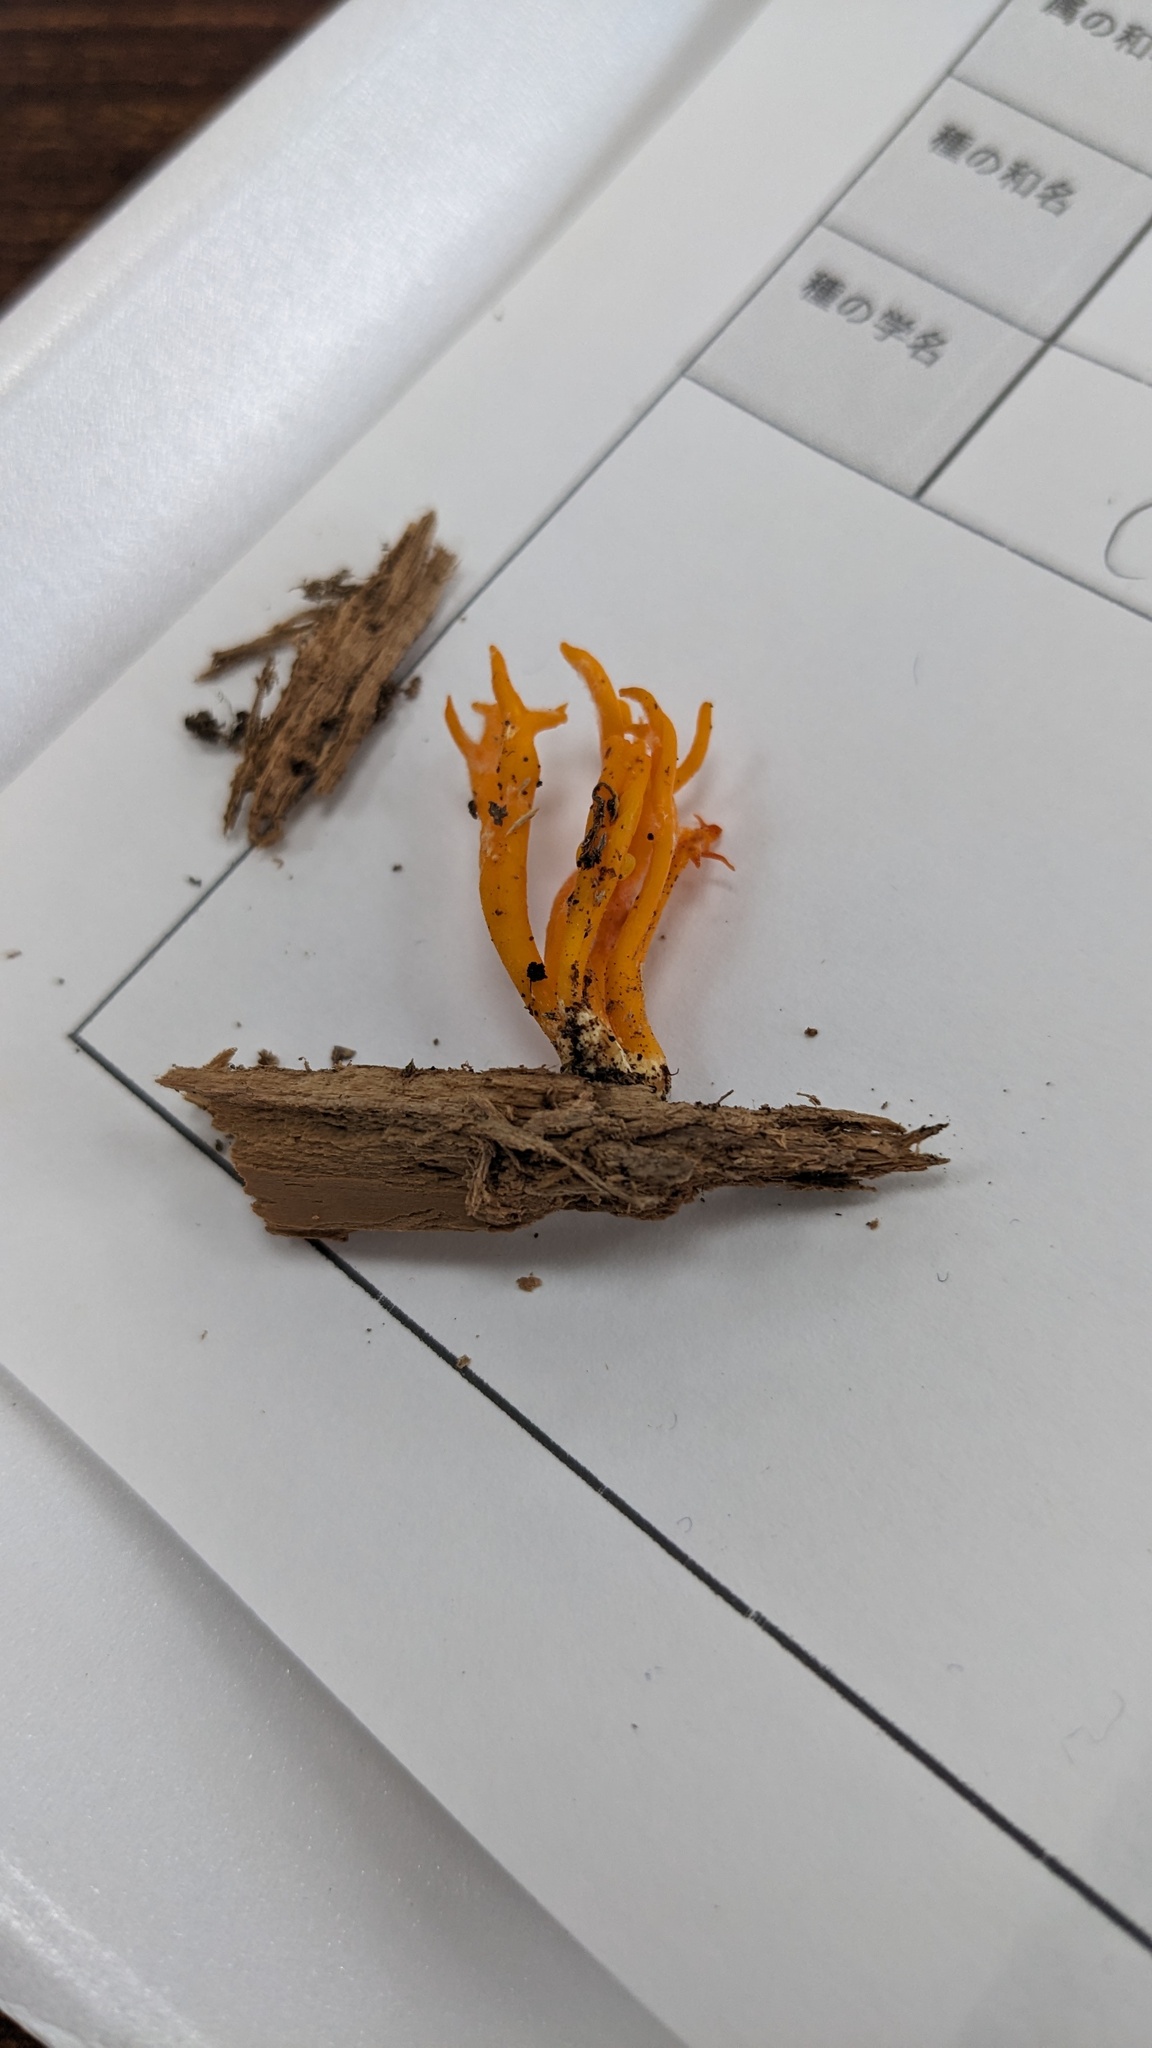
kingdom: Fungi
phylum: Basidiomycota
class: Dacrymycetes
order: Dacrymycetales
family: Dacrymycetaceae
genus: Calocera
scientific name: Calocera viscosa
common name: Yellow stagshorn
